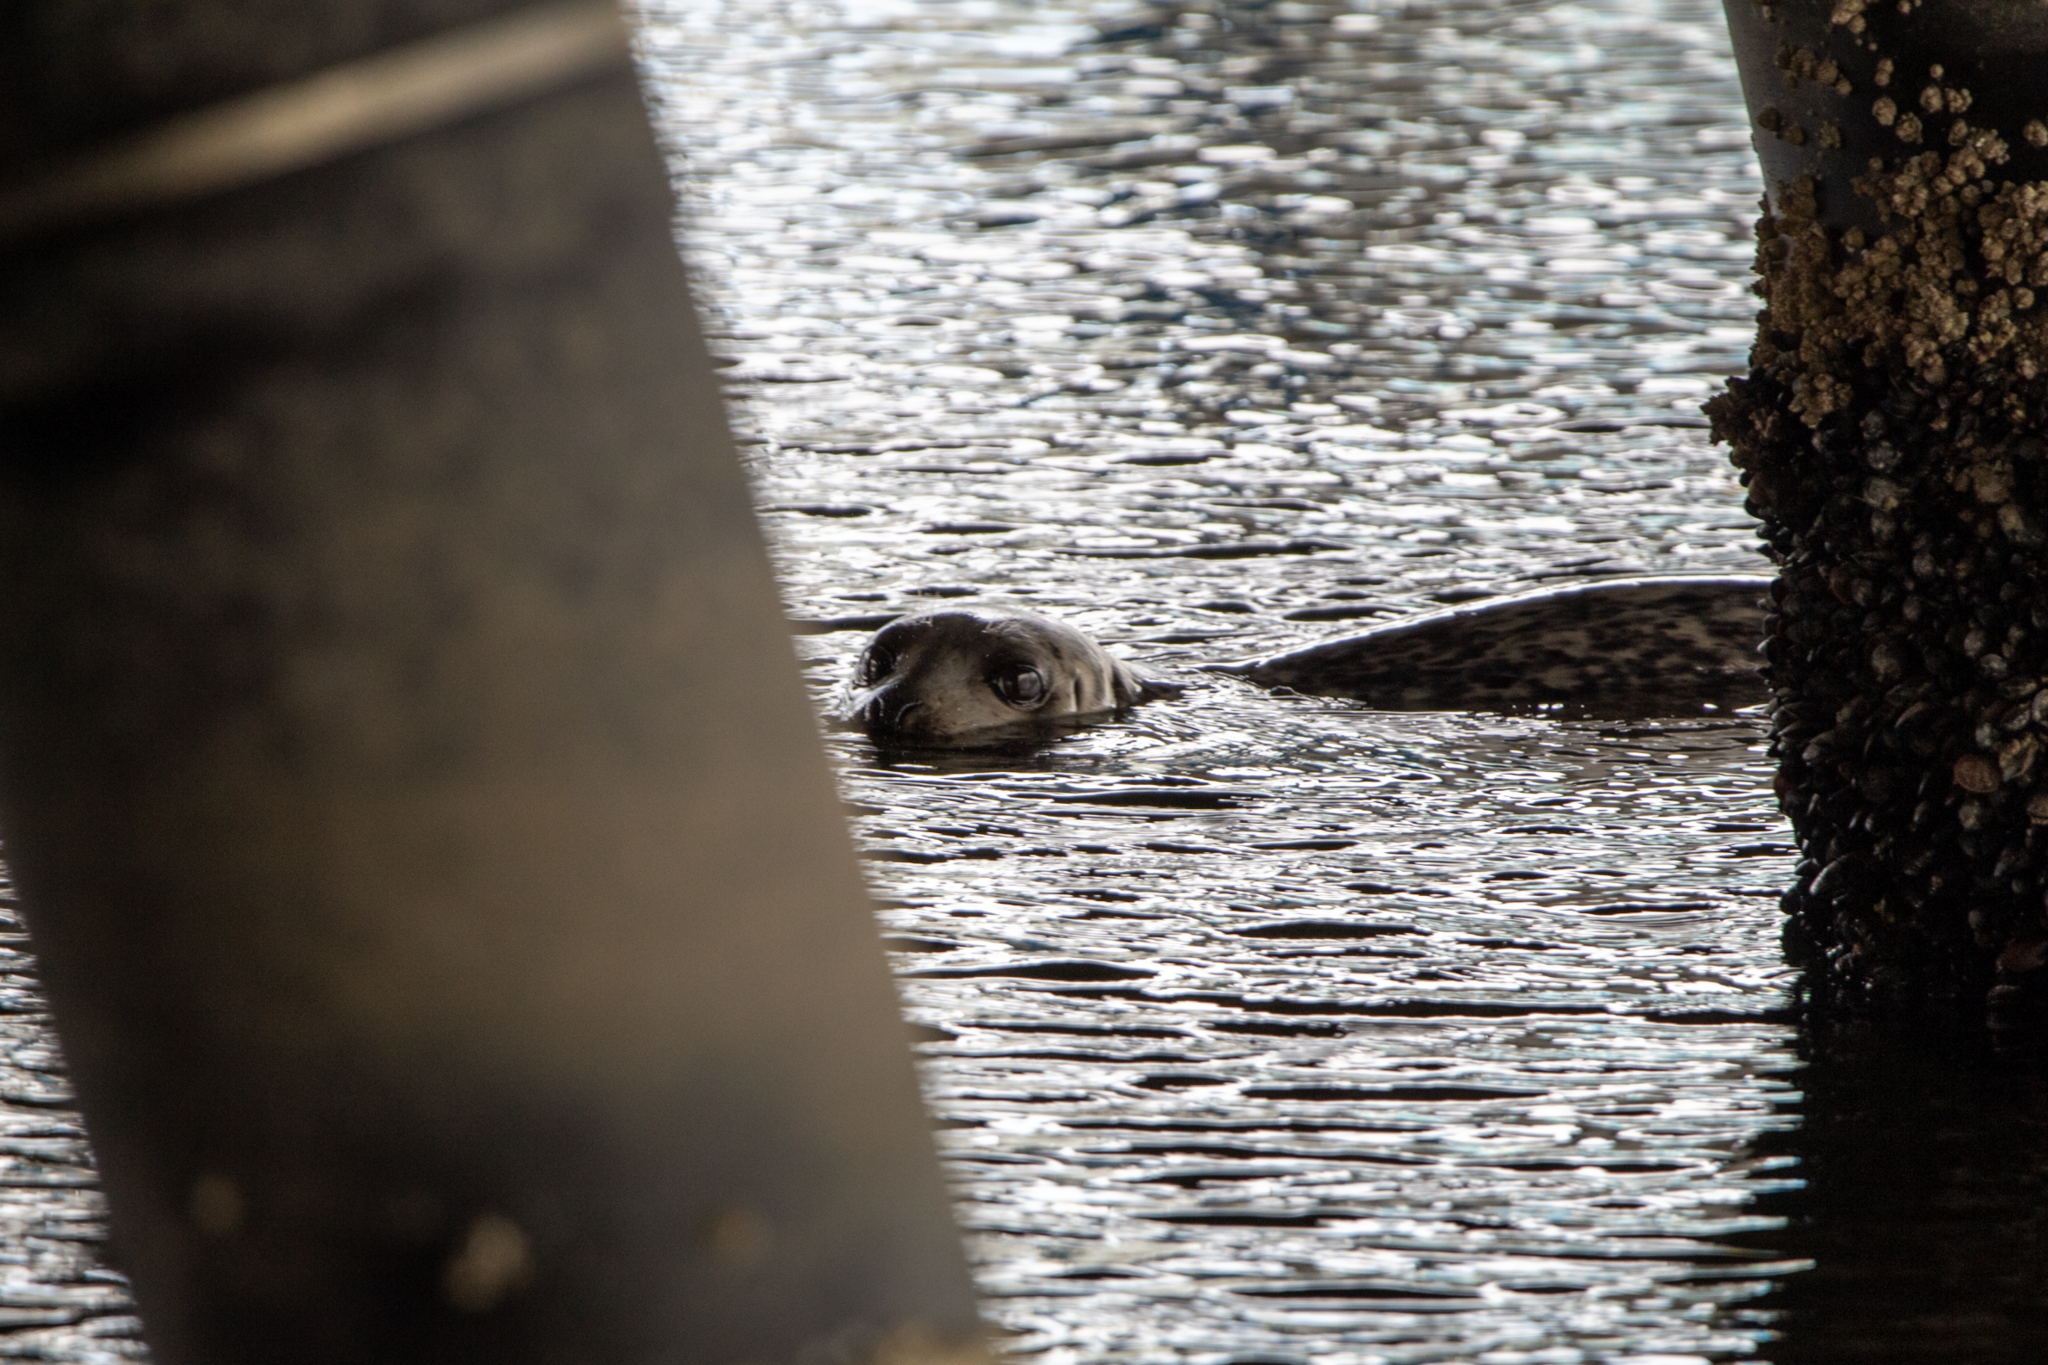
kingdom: Animalia
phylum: Chordata
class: Mammalia
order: Carnivora
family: Phocidae
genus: Phoca
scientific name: Phoca vitulina
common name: Harbor seal
